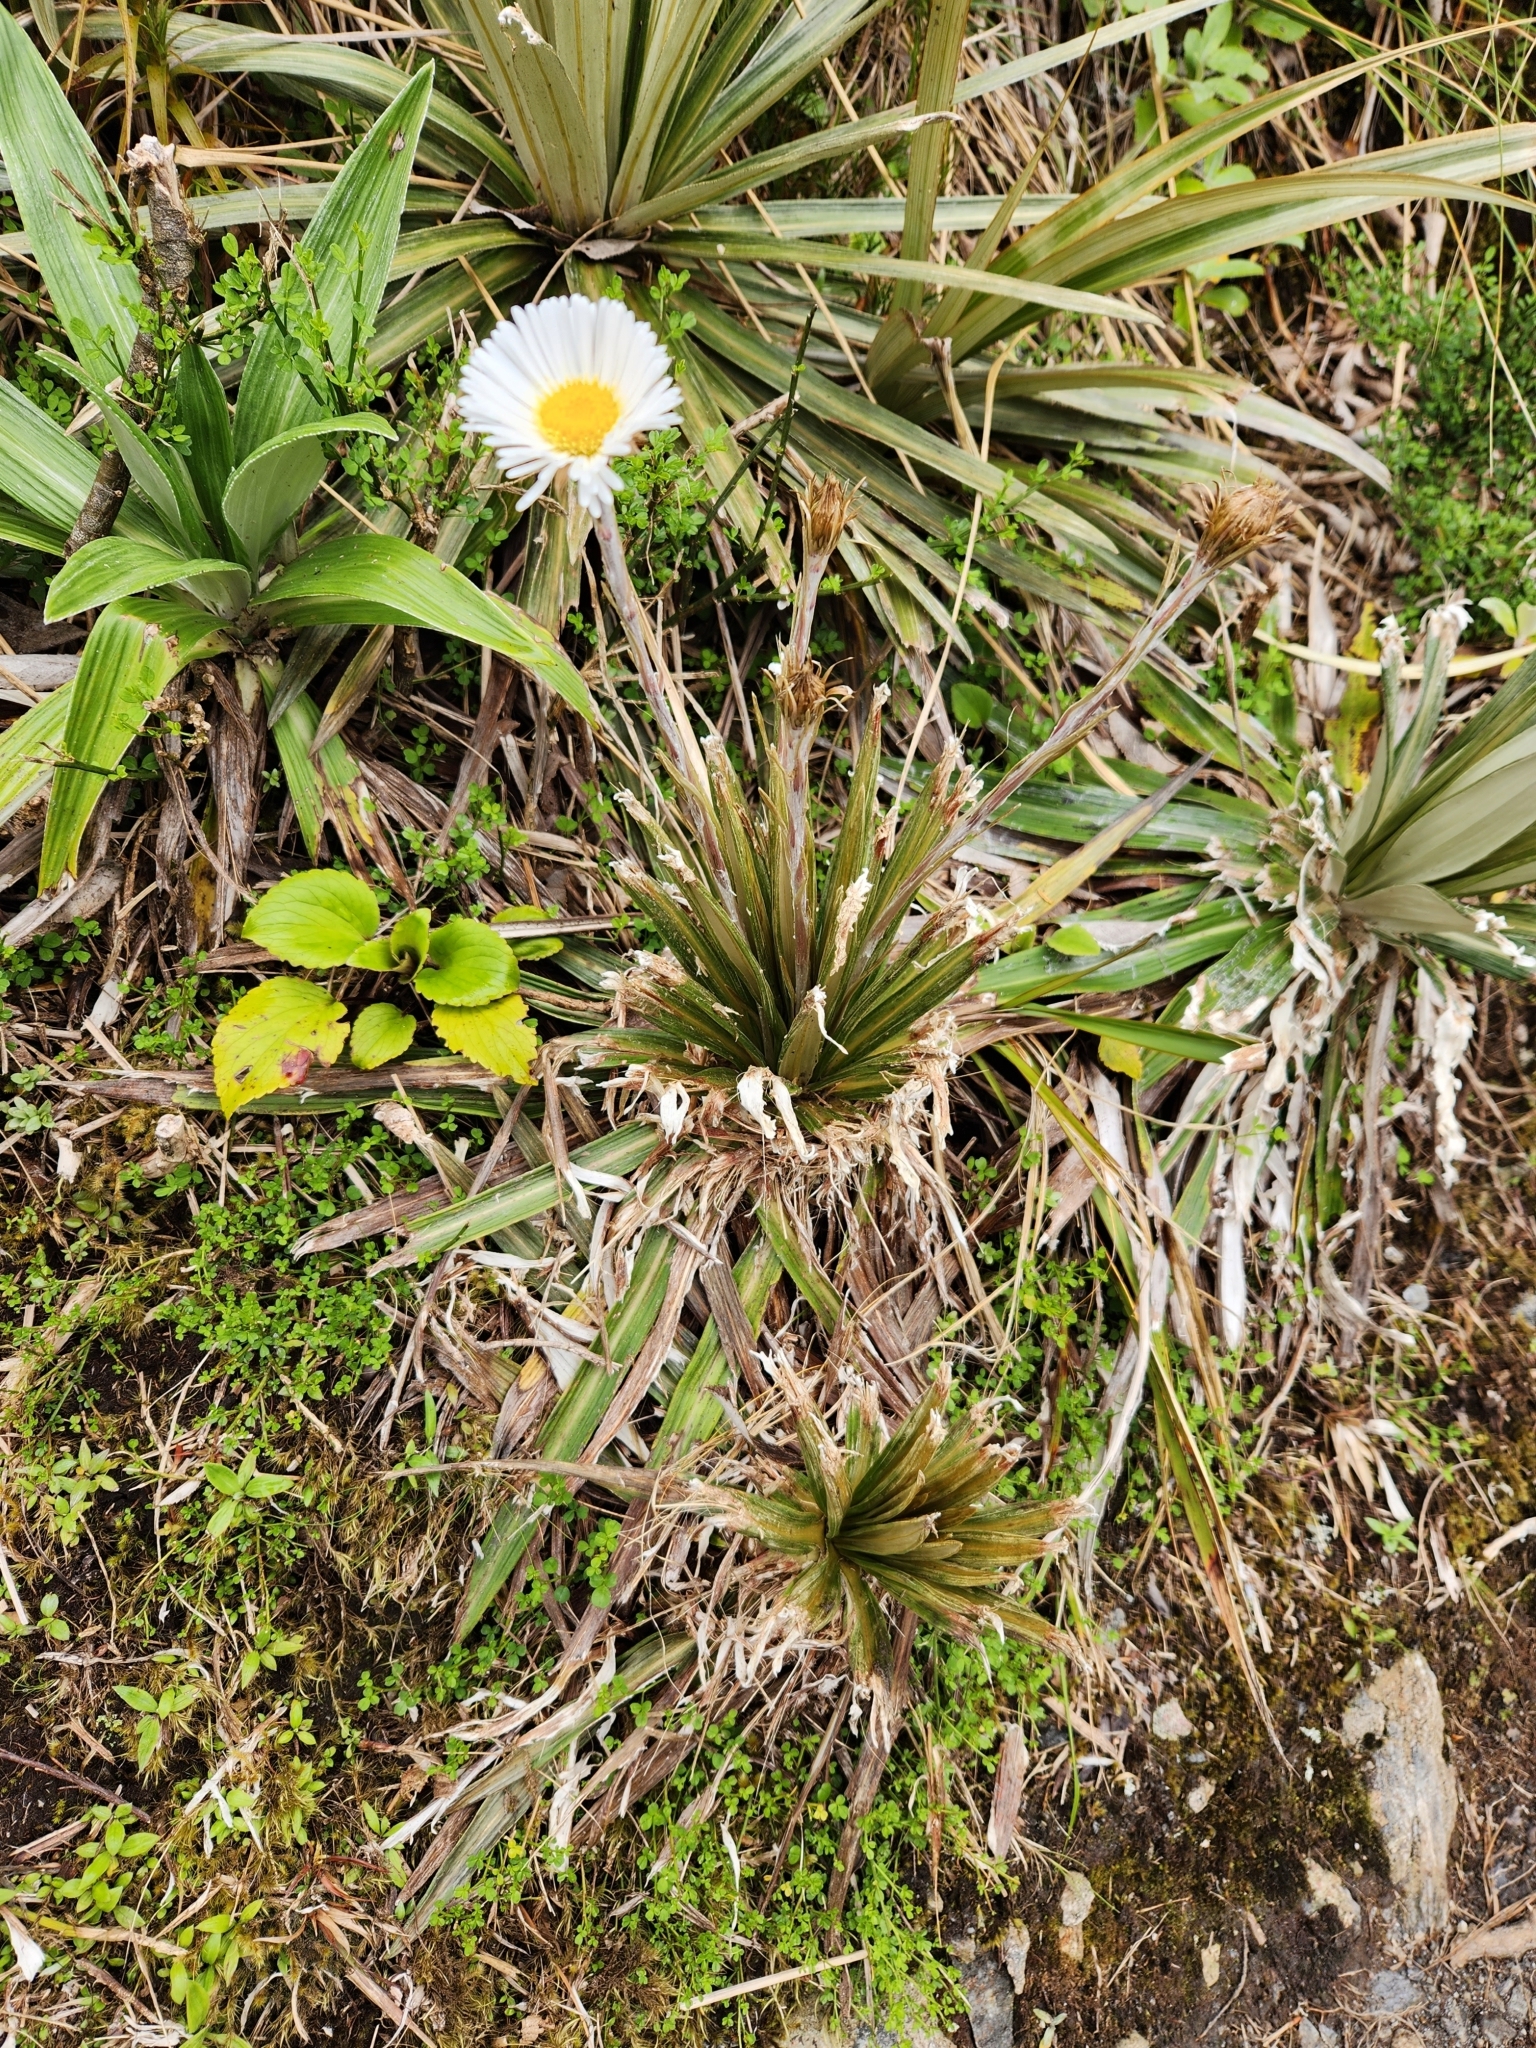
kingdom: Plantae
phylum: Tracheophyta
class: Magnoliopsida
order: Asterales
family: Asteraceae
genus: Celmisia
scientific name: Celmisia armstrongii
